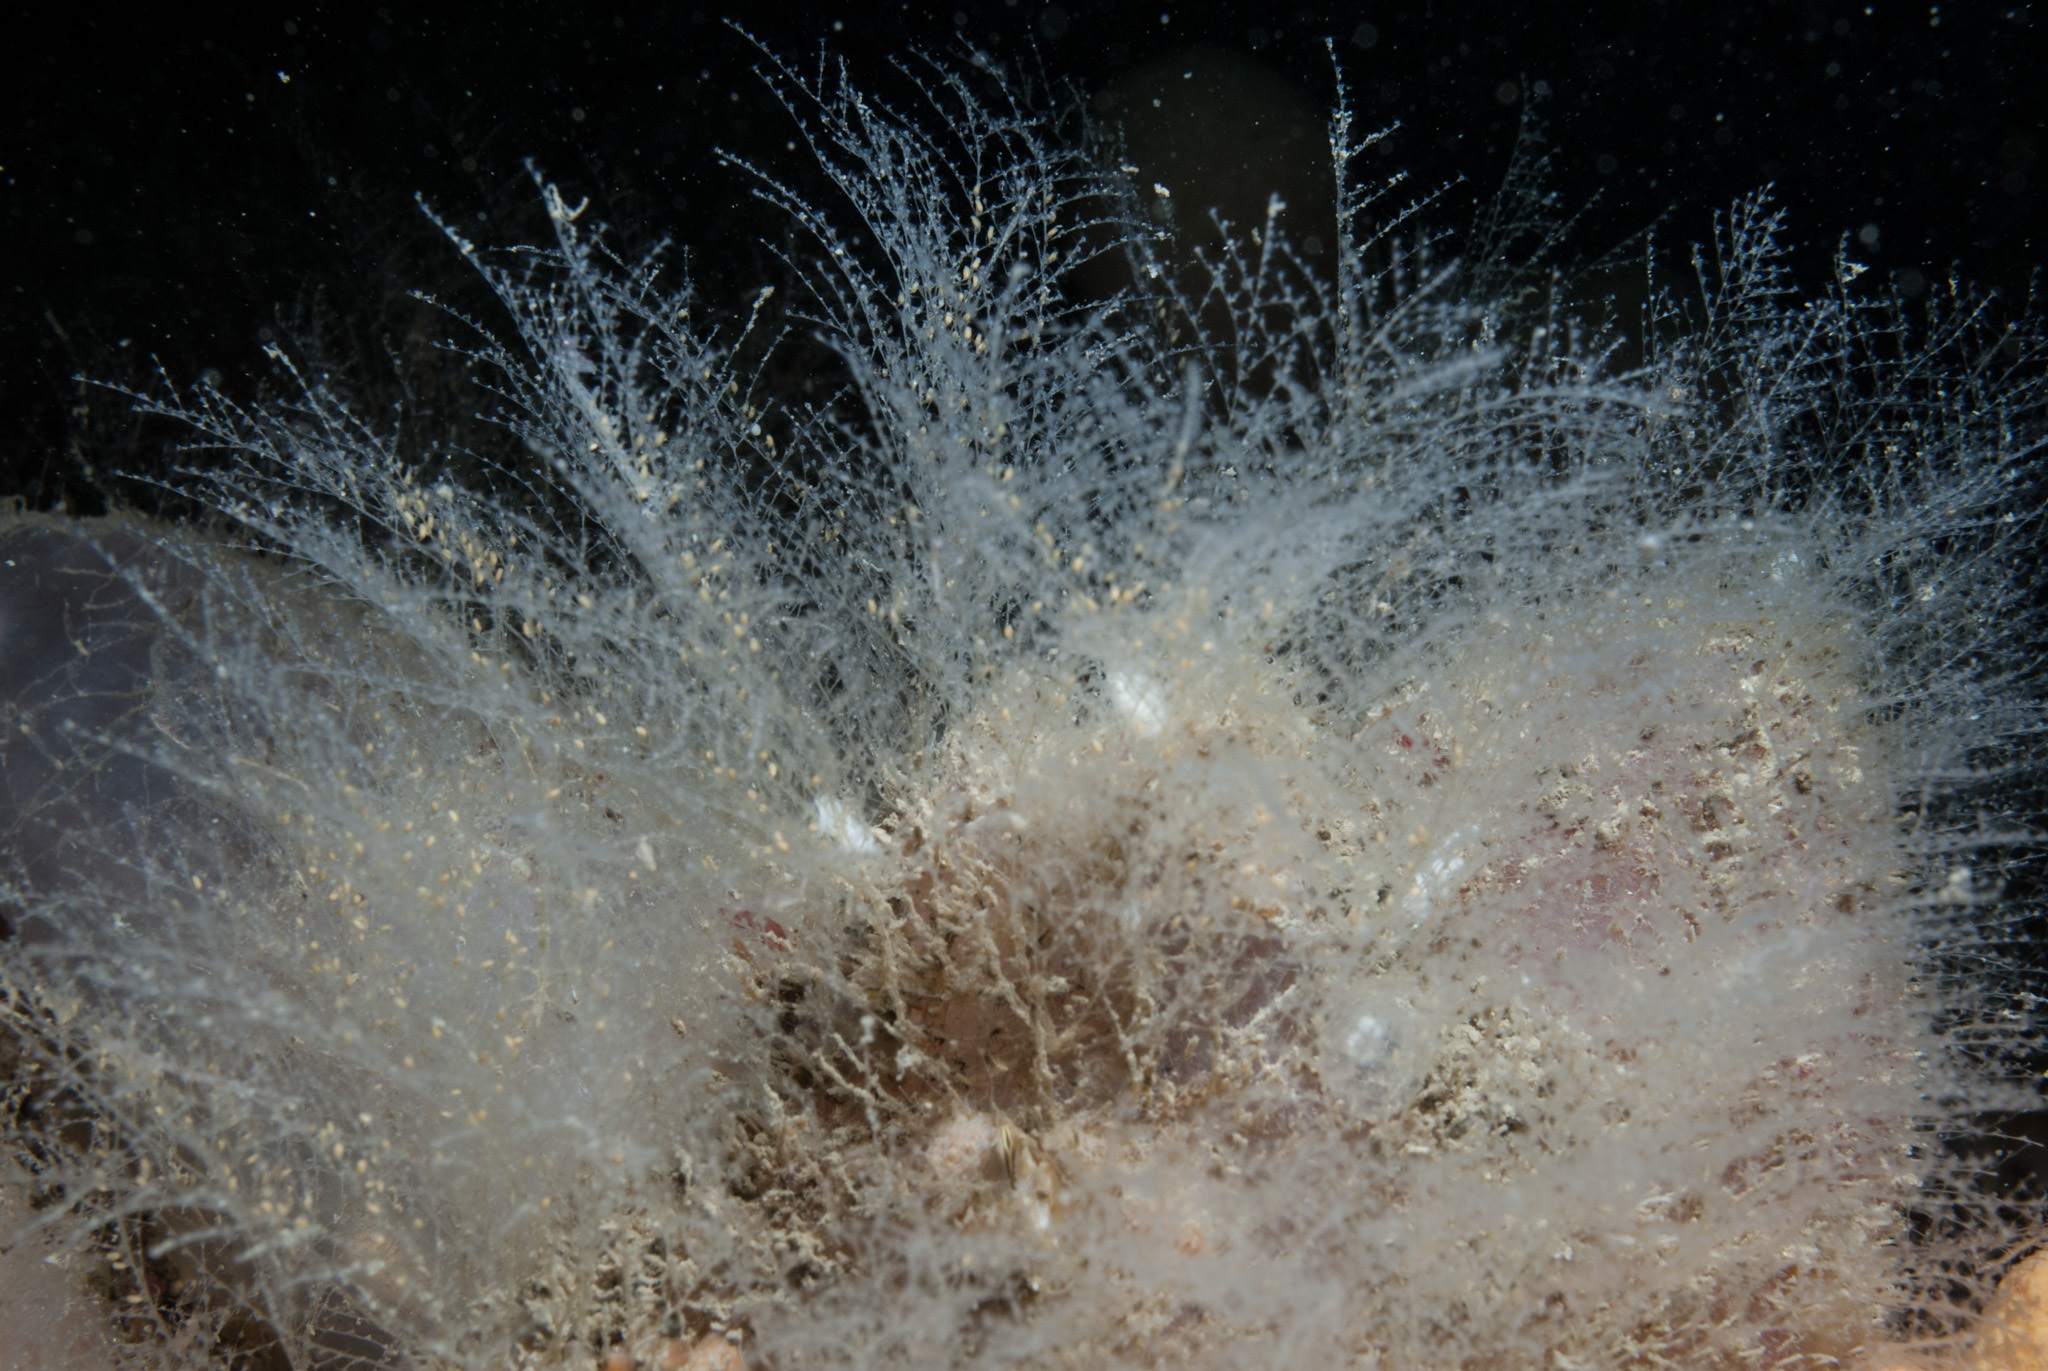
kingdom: Animalia
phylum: Cnidaria
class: Hydrozoa
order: Leptothecata
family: Halopterididae
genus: Halopteris
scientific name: Halopteris catharina
